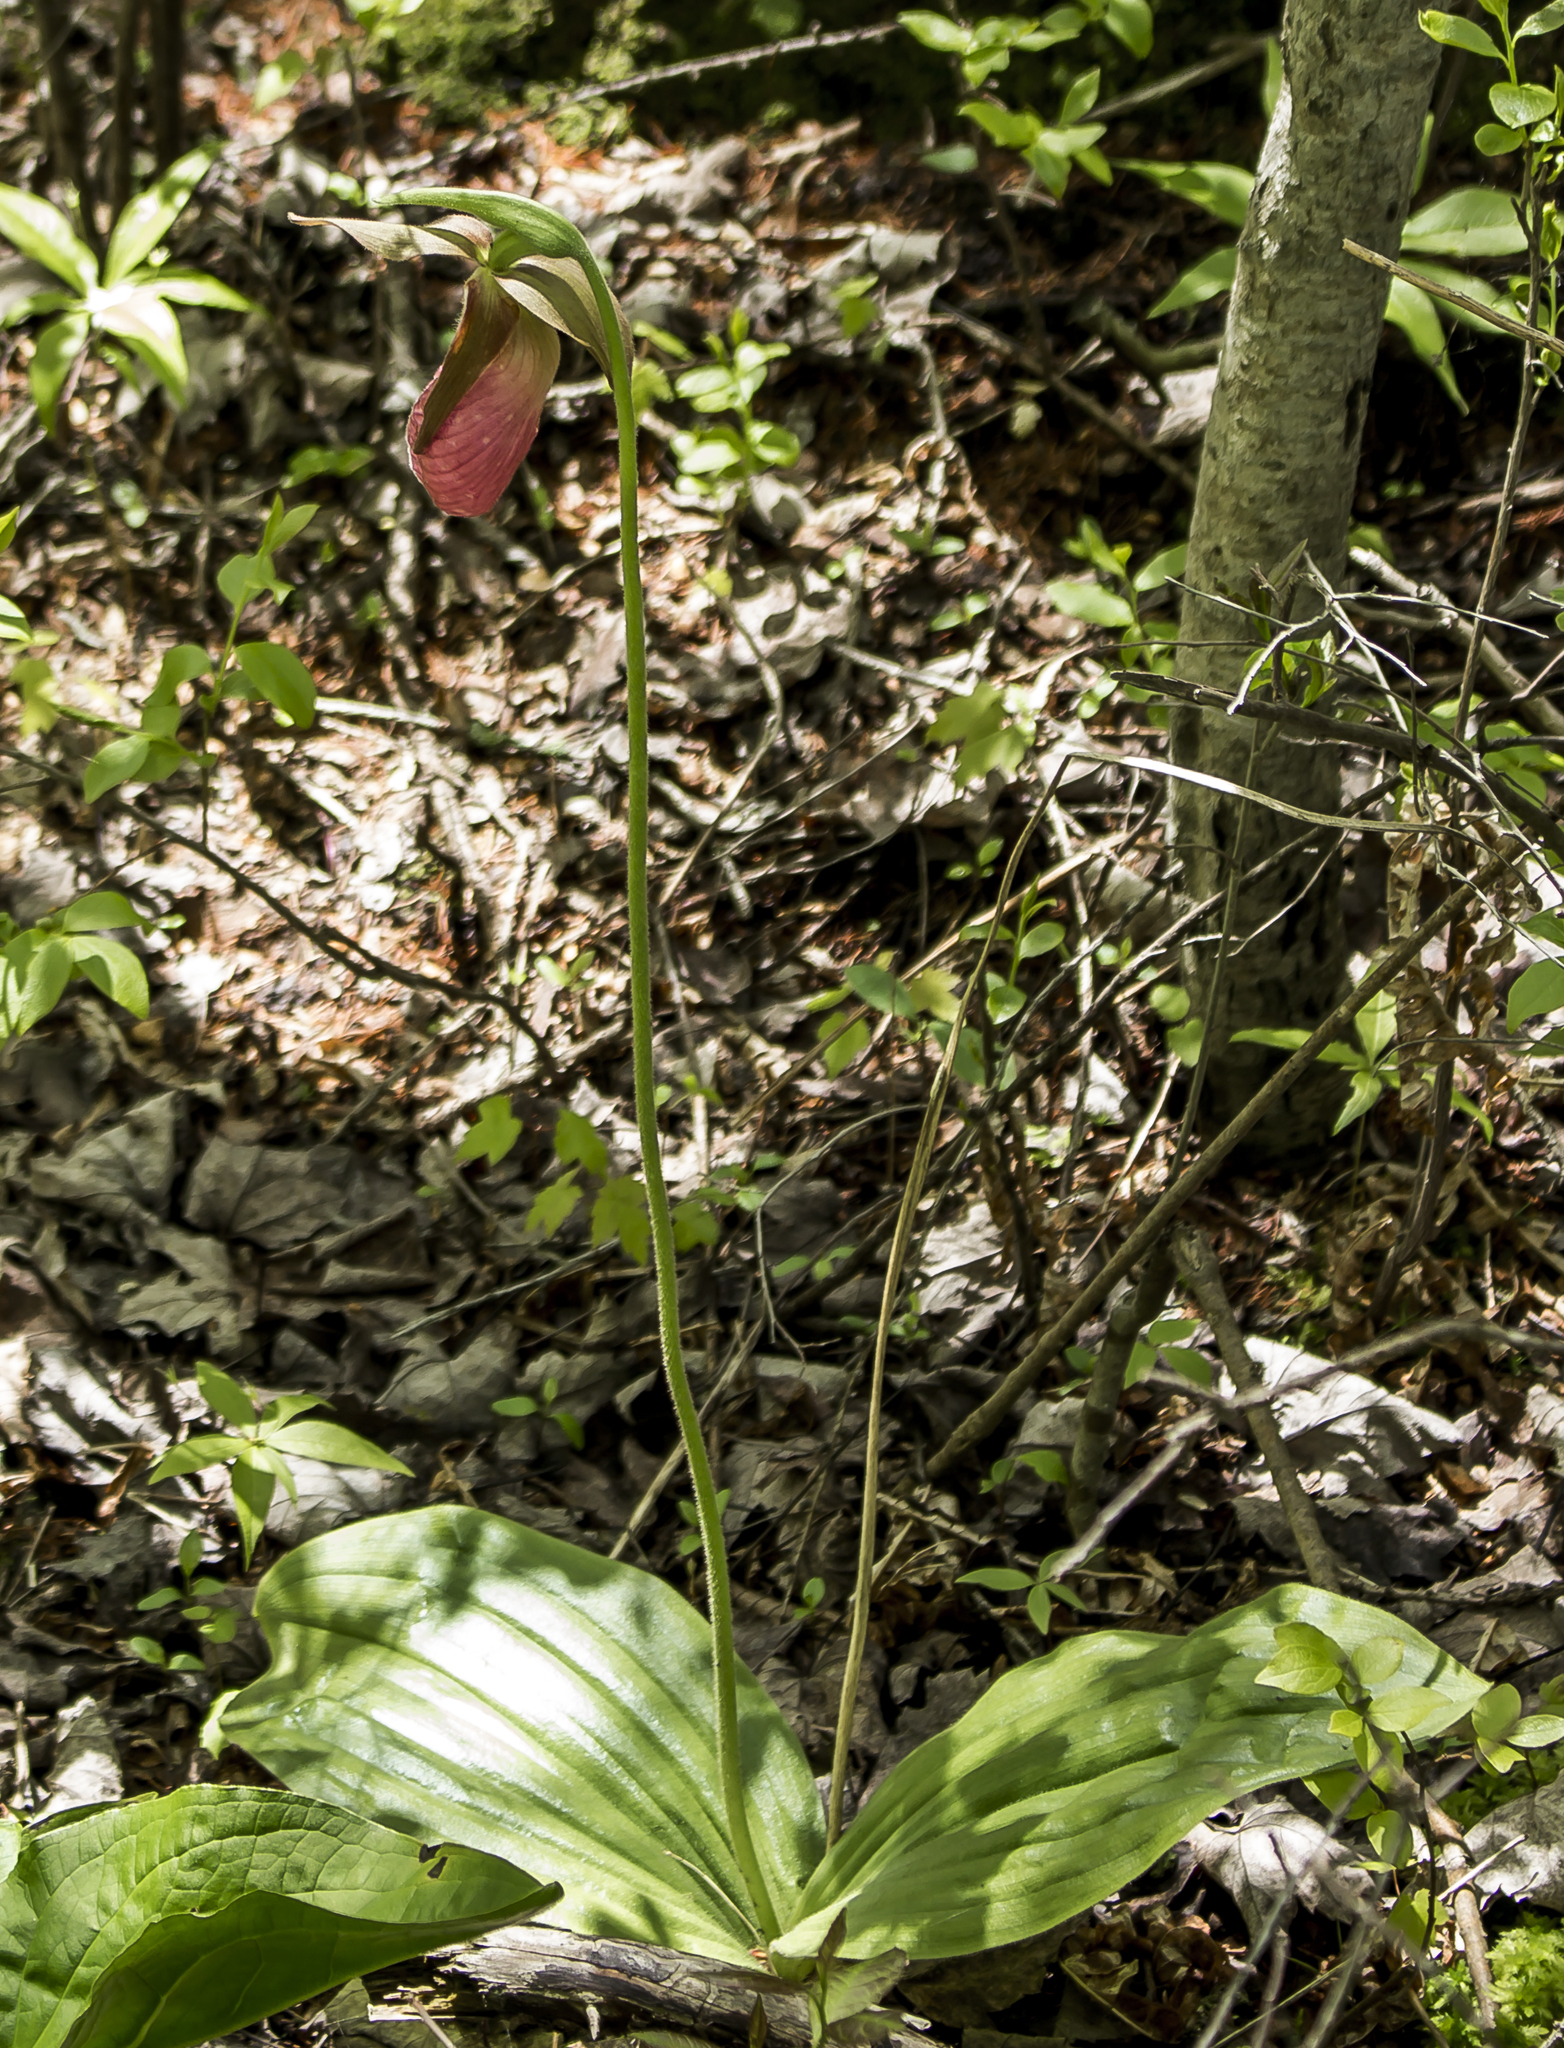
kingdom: Plantae
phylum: Tracheophyta
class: Liliopsida
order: Asparagales
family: Orchidaceae
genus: Cypripedium
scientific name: Cypripedium acaule
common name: Pink lady's-slipper
